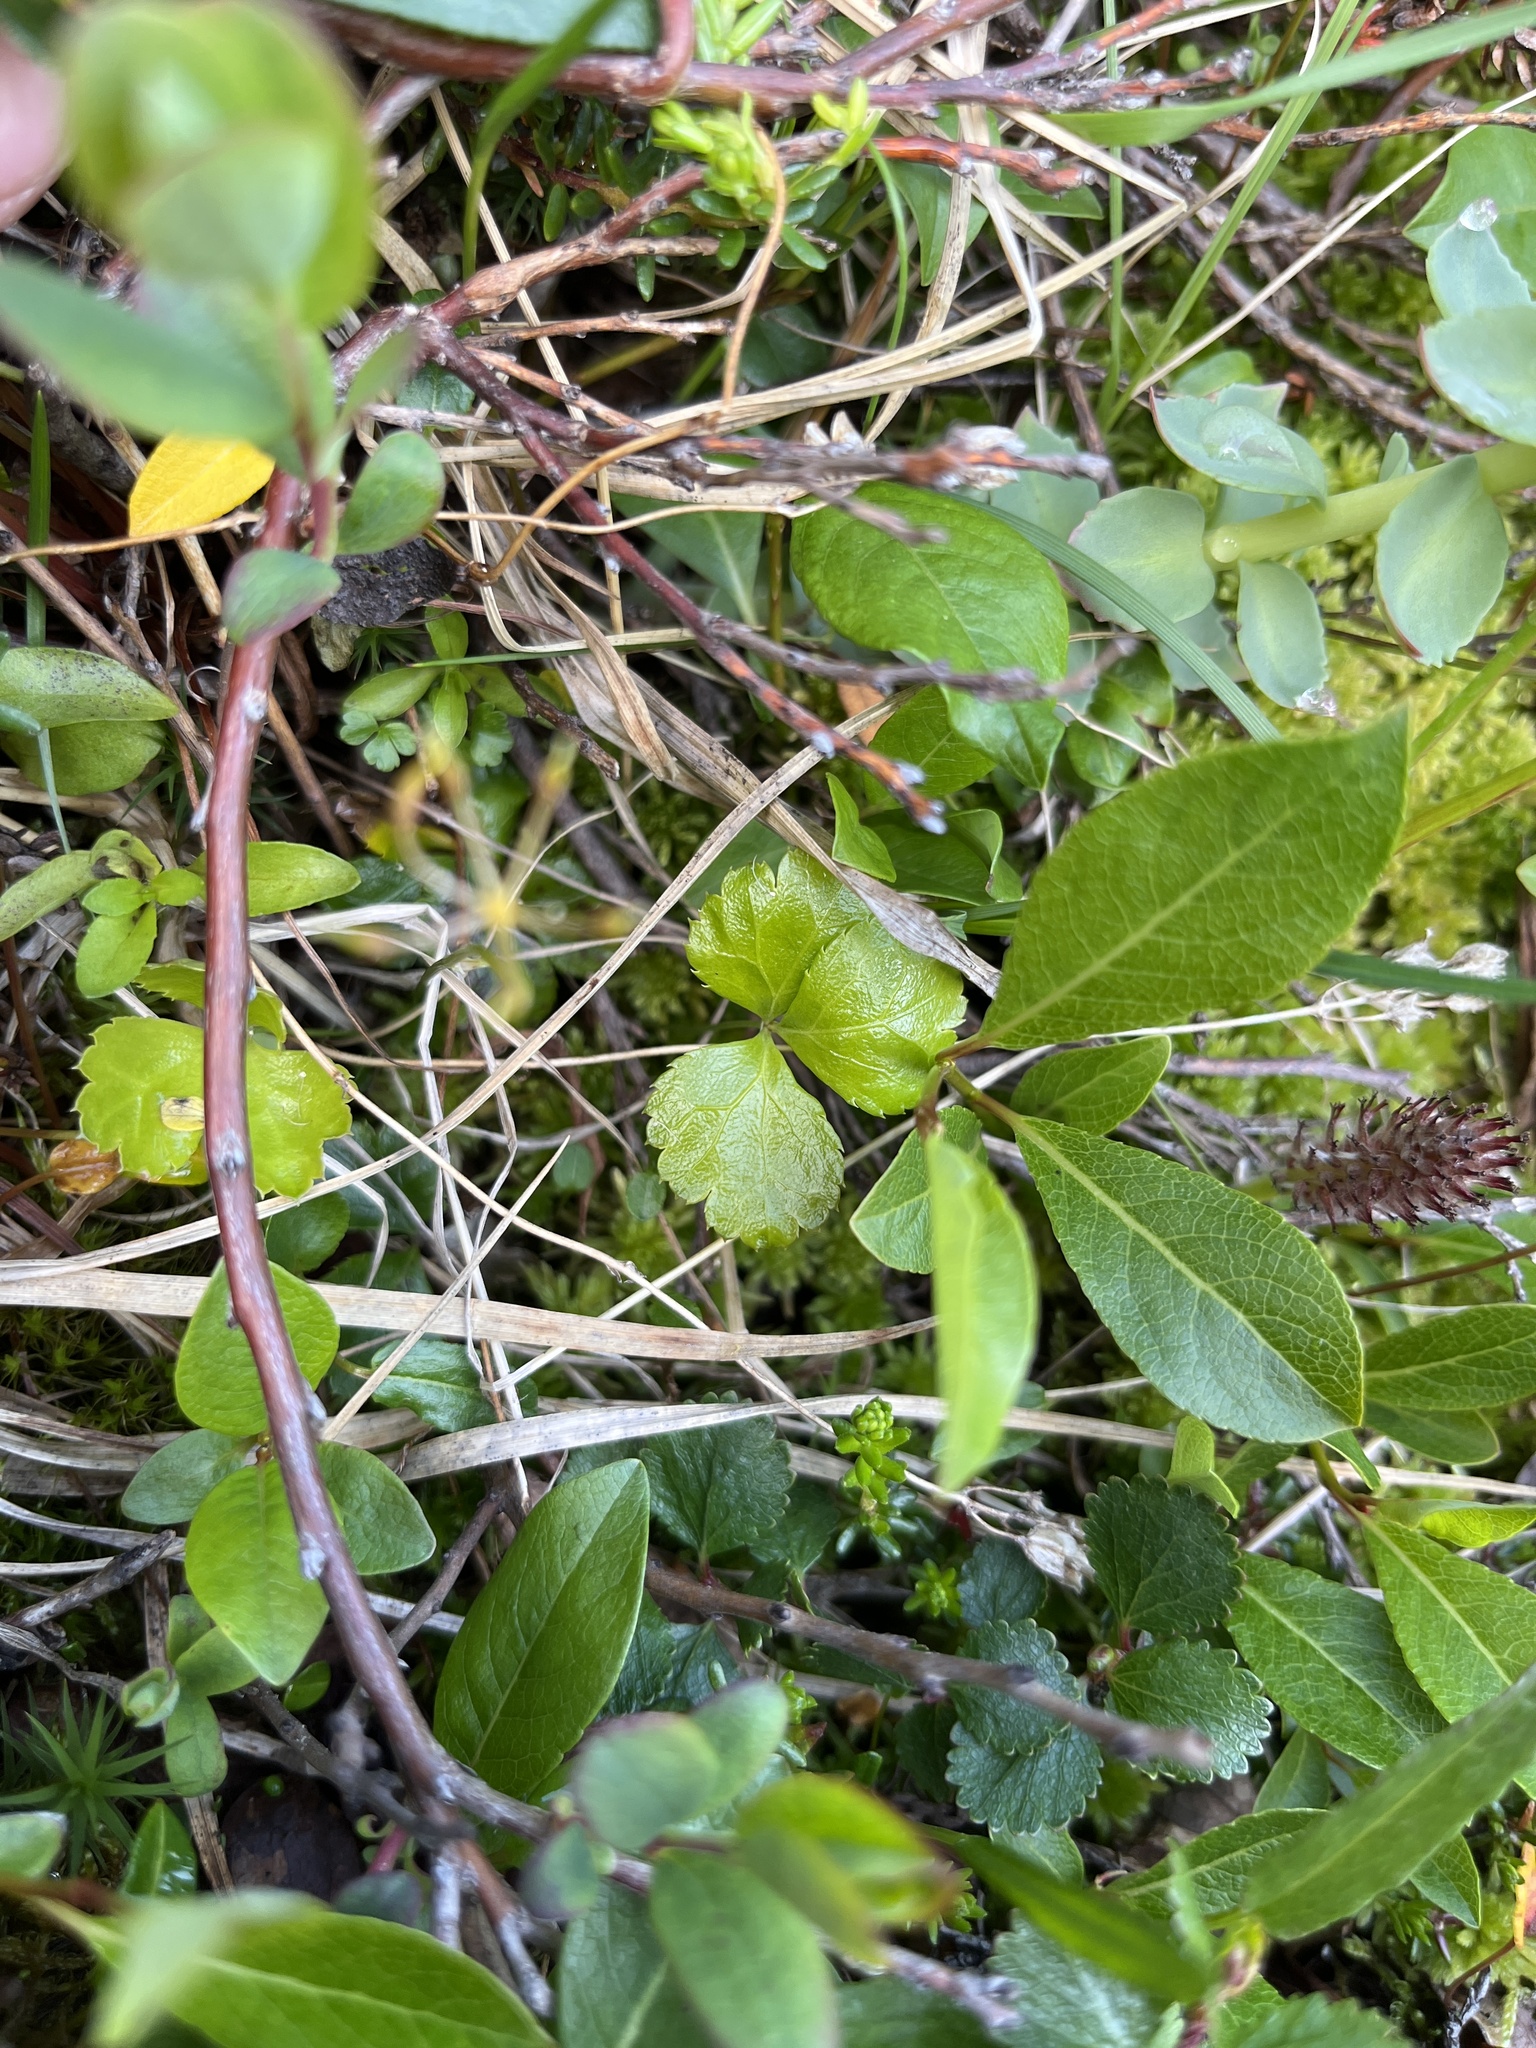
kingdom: Plantae
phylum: Tracheophyta
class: Magnoliopsida
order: Ranunculales
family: Ranunculaceae
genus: Coptis
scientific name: Coptis trifolia
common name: Canker-root
